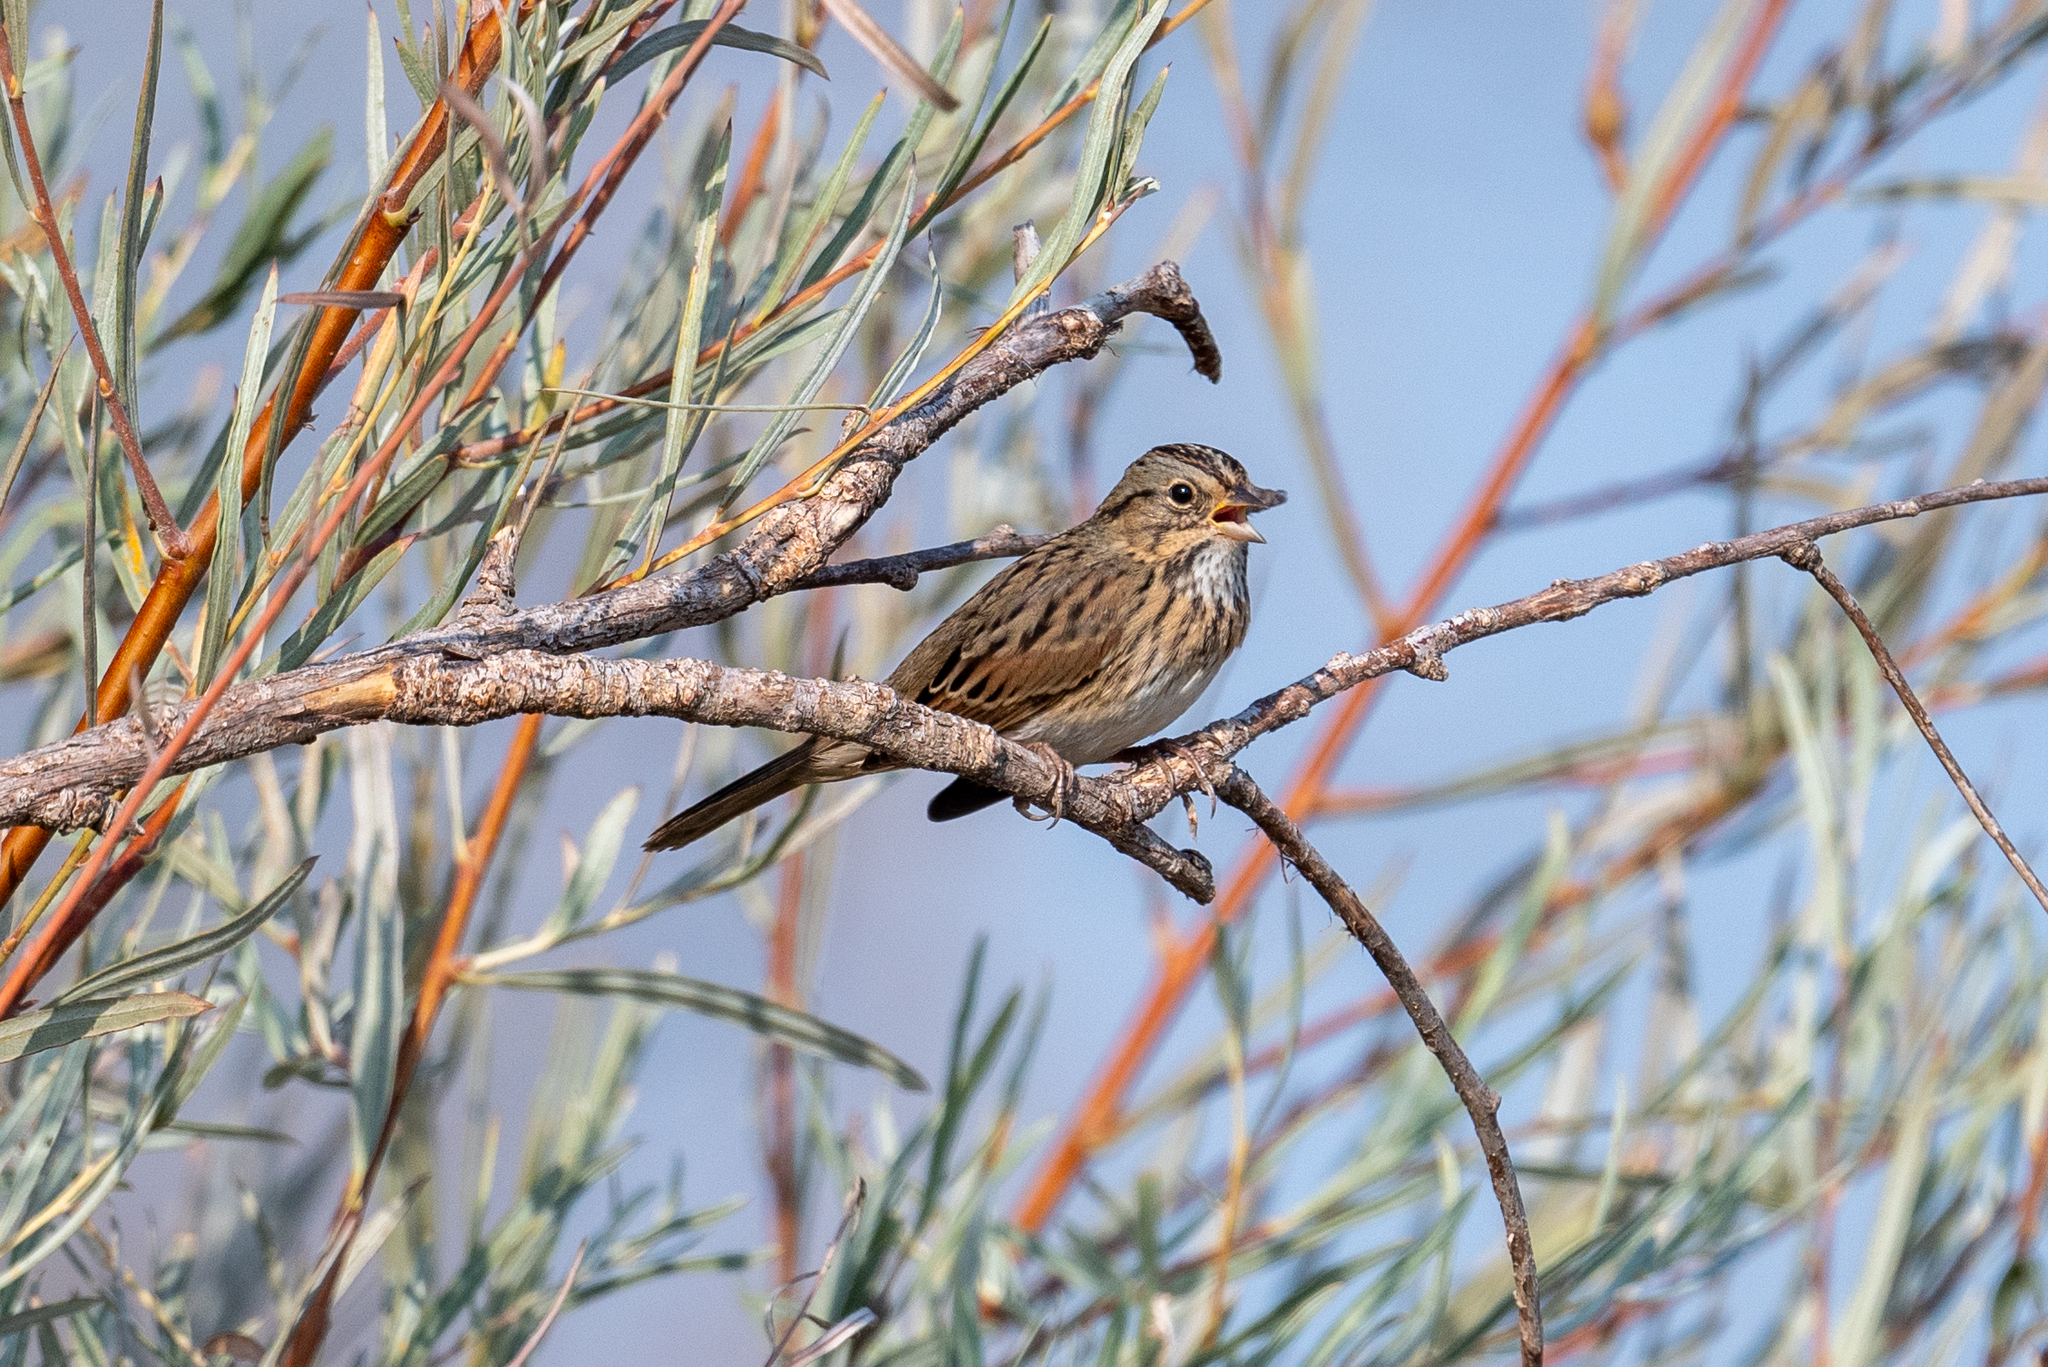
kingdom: Animalia
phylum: Chordata
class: Aves
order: Passeriformes
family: Passerellidae
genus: Melospiza
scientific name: Melospiza lincolnii
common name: Lincoln's sparrow
